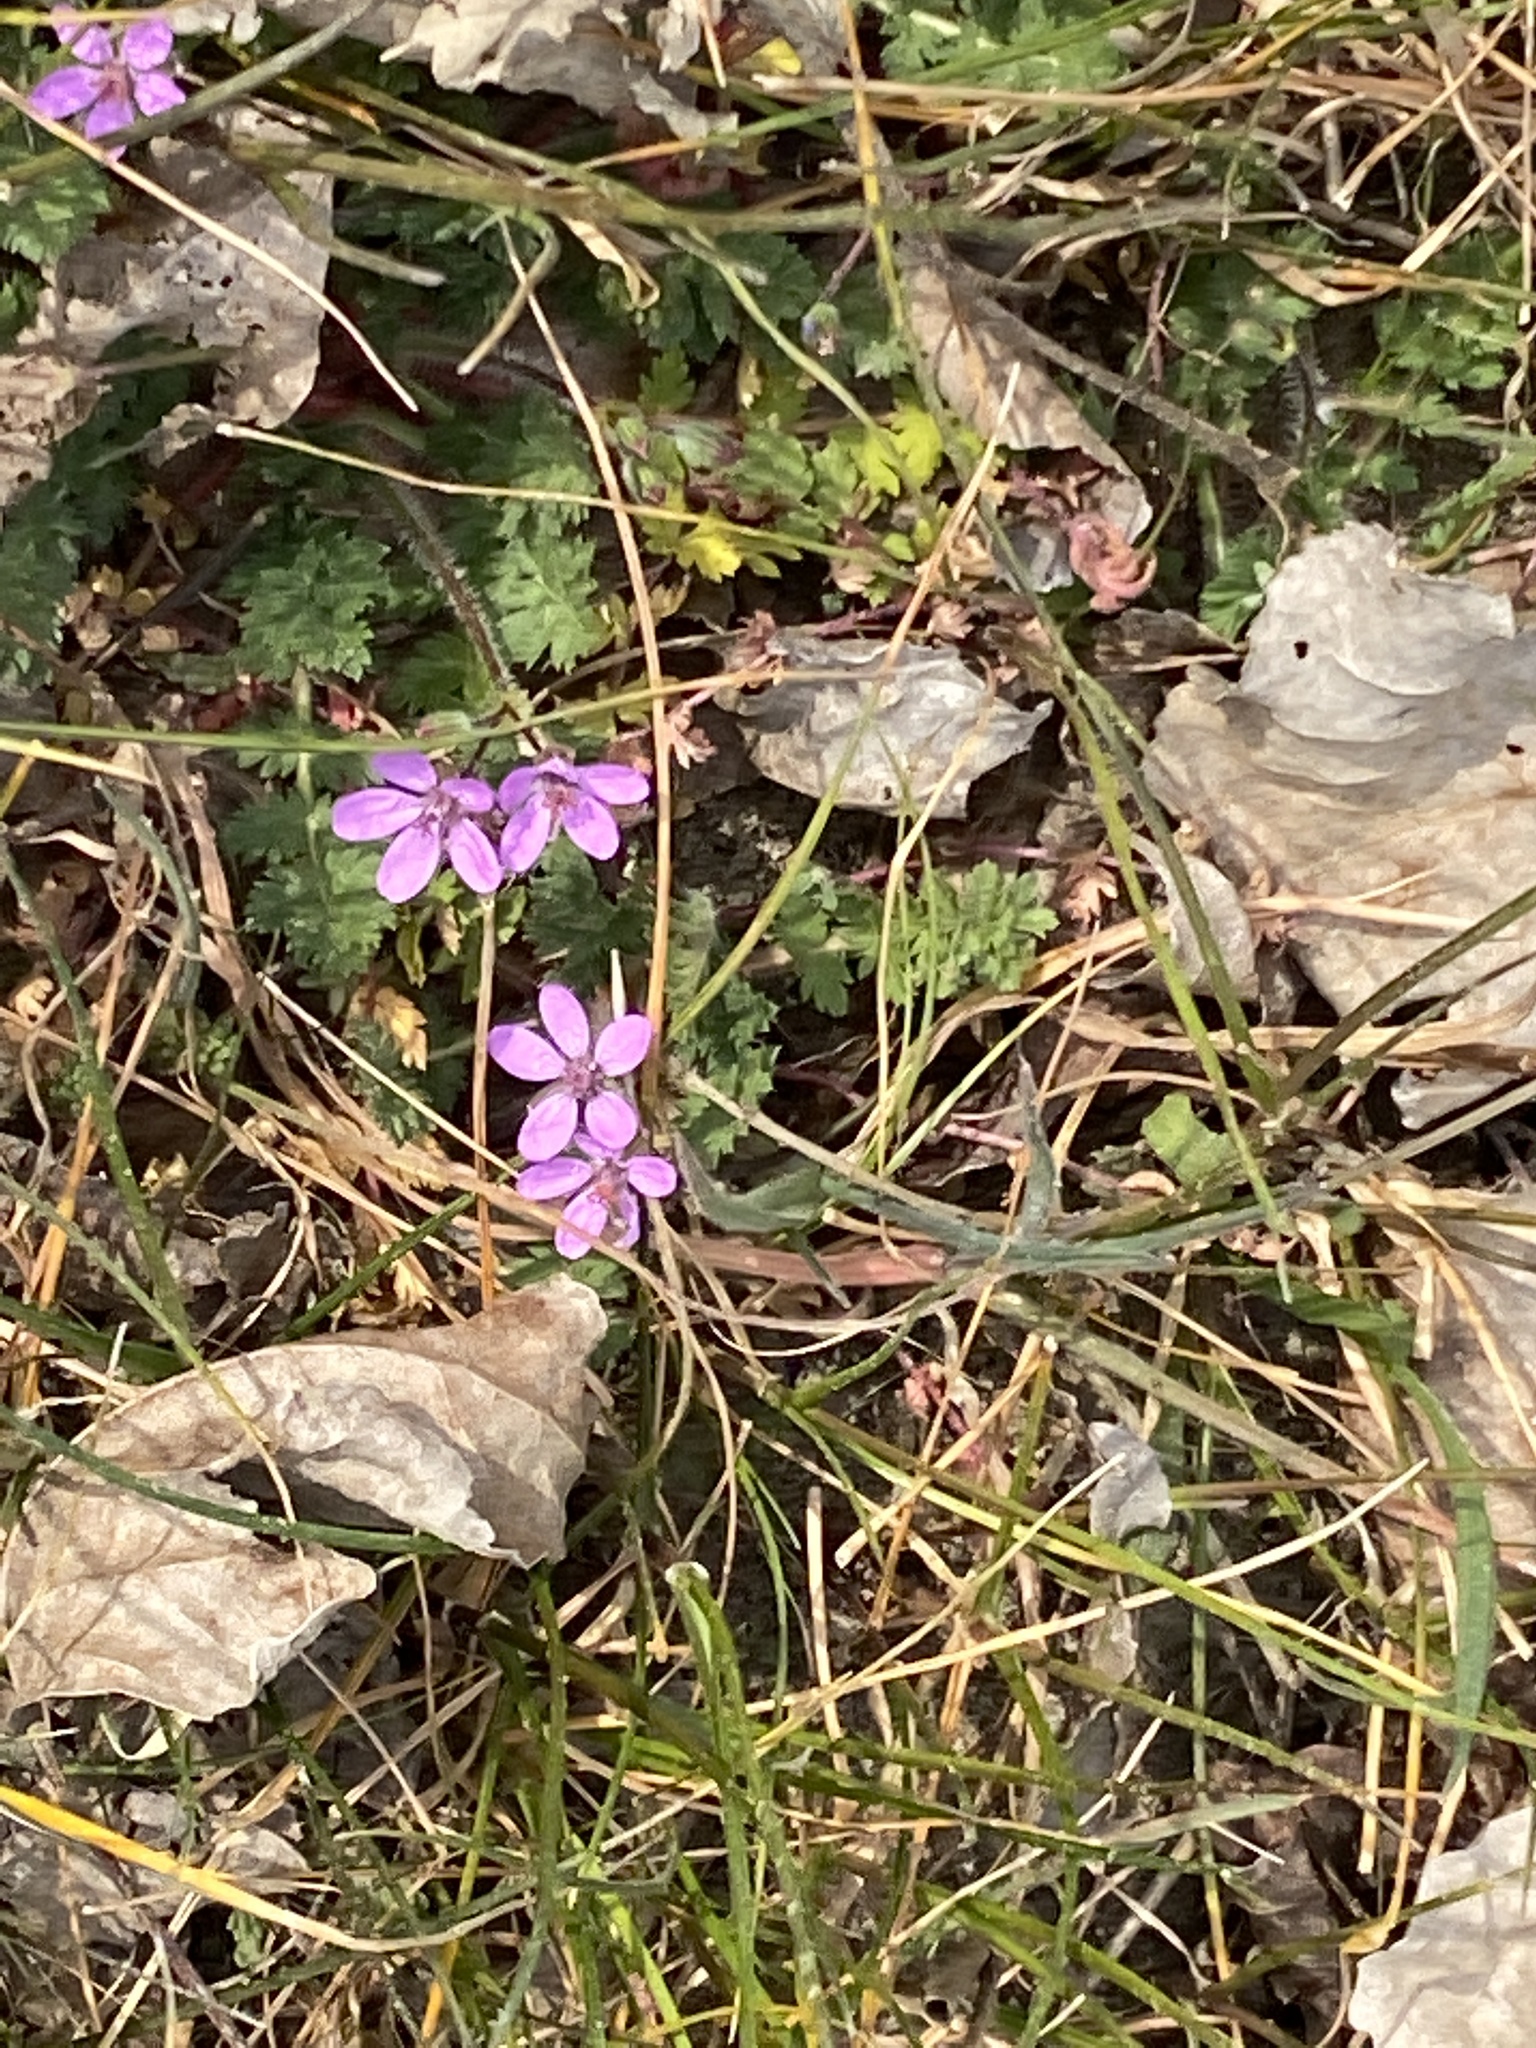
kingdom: Plantae
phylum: Tracheophyta
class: Magnoliopsida
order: Geraniales
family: Geraniaceae
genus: Erodium
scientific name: Erodium cicutarium
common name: Common stork's-bill
